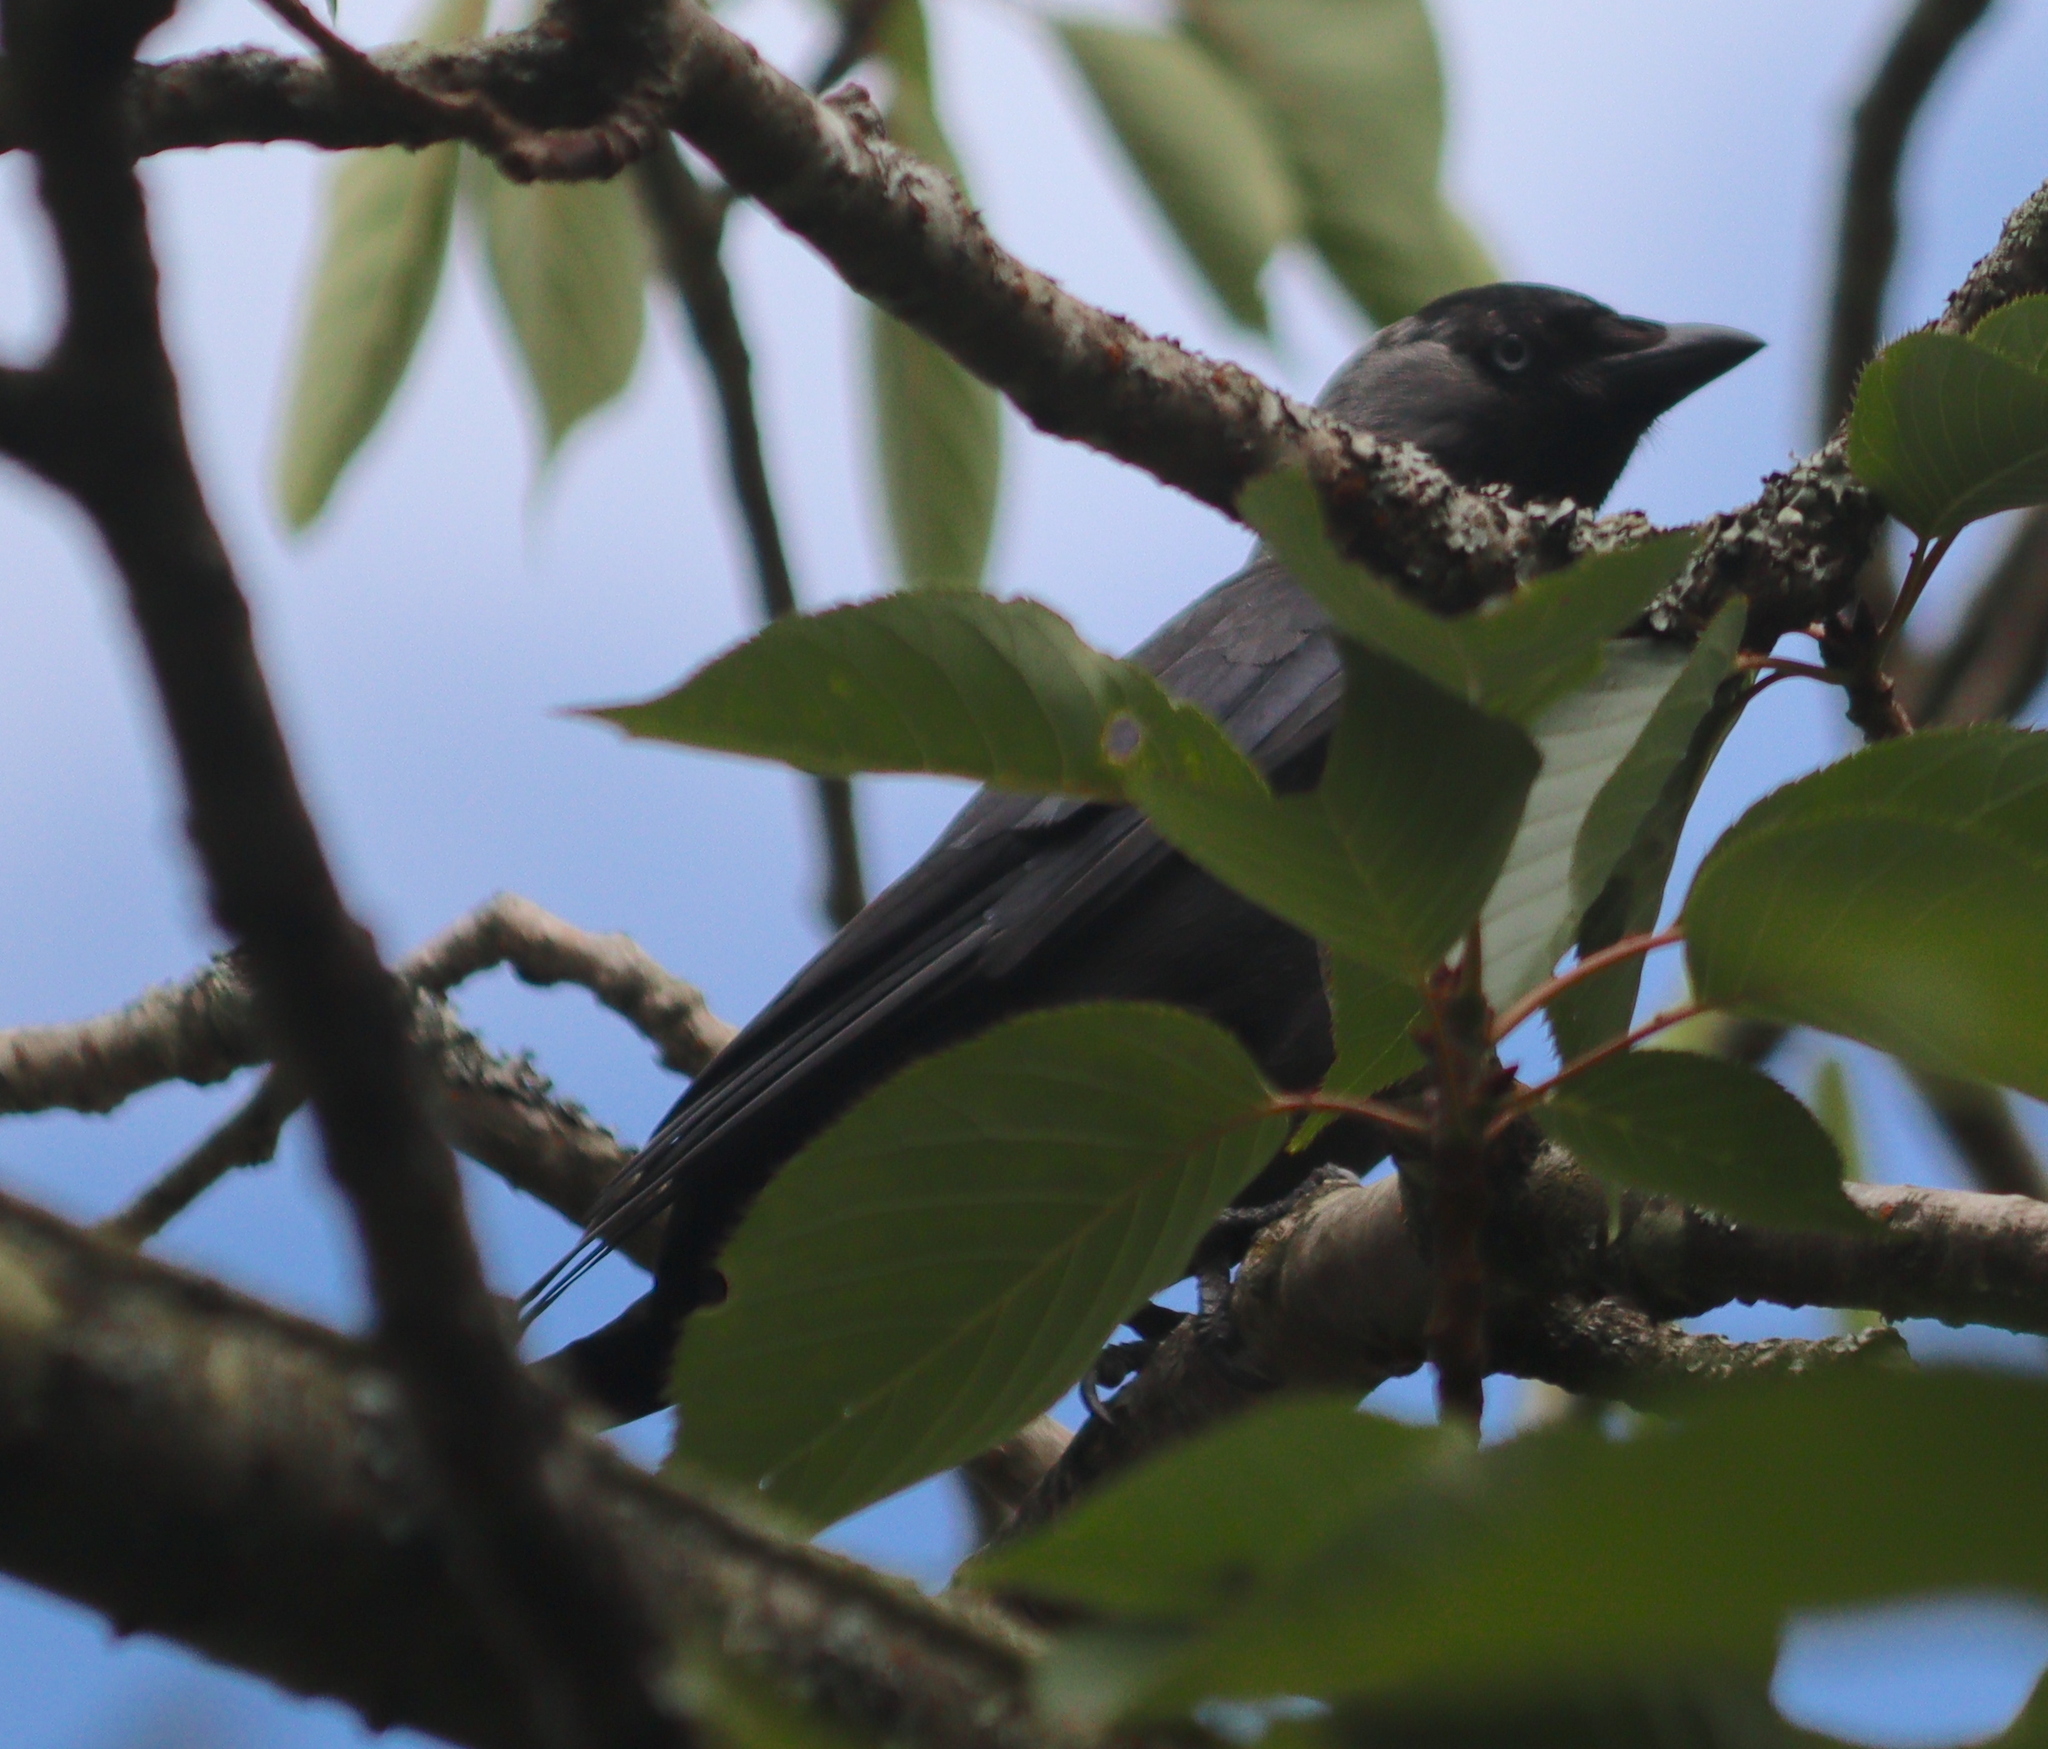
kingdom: Animalia
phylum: Chordata
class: Aves
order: Passeriformes
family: Corvidae
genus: Coloeus
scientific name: Coloeus monedula
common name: Western jackdaw
